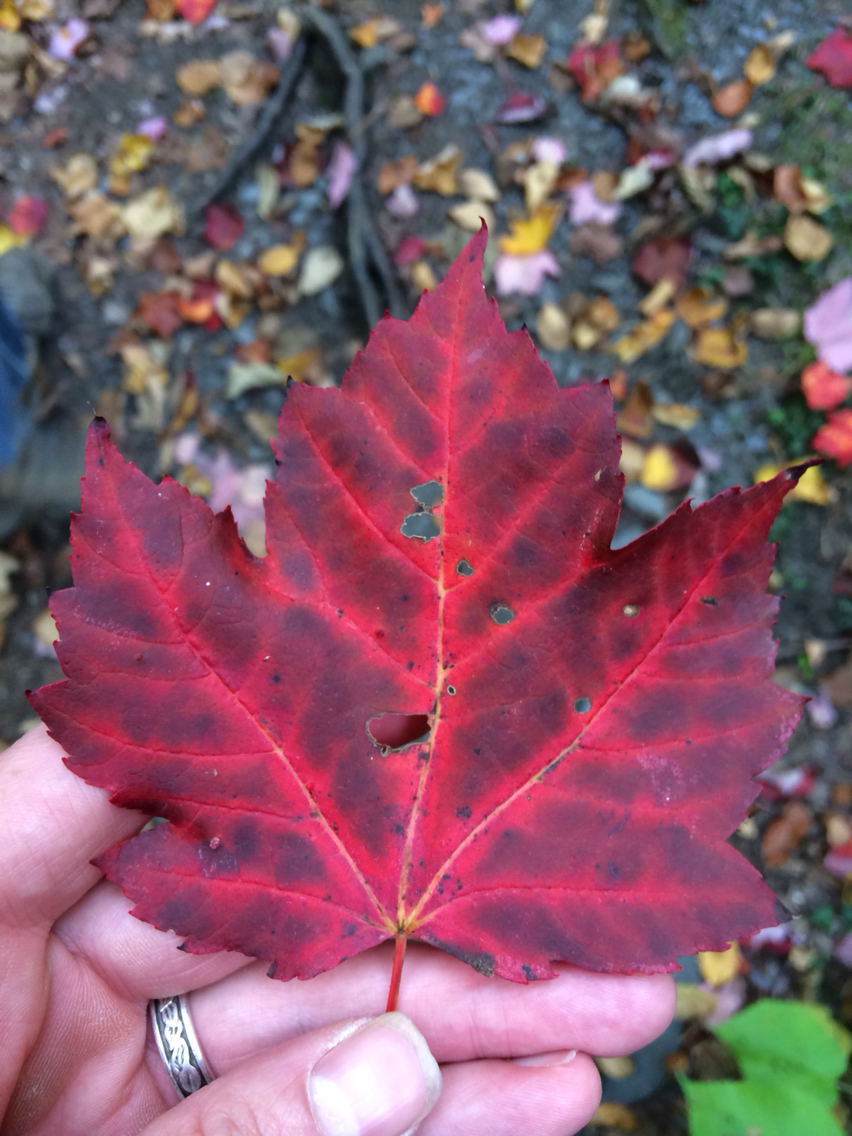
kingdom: Plantae
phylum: Tracheophyta
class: Magnoliopsida
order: Sapindales
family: Sapindaceae
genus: Acer
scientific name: Acer rubrum
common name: Red maple
